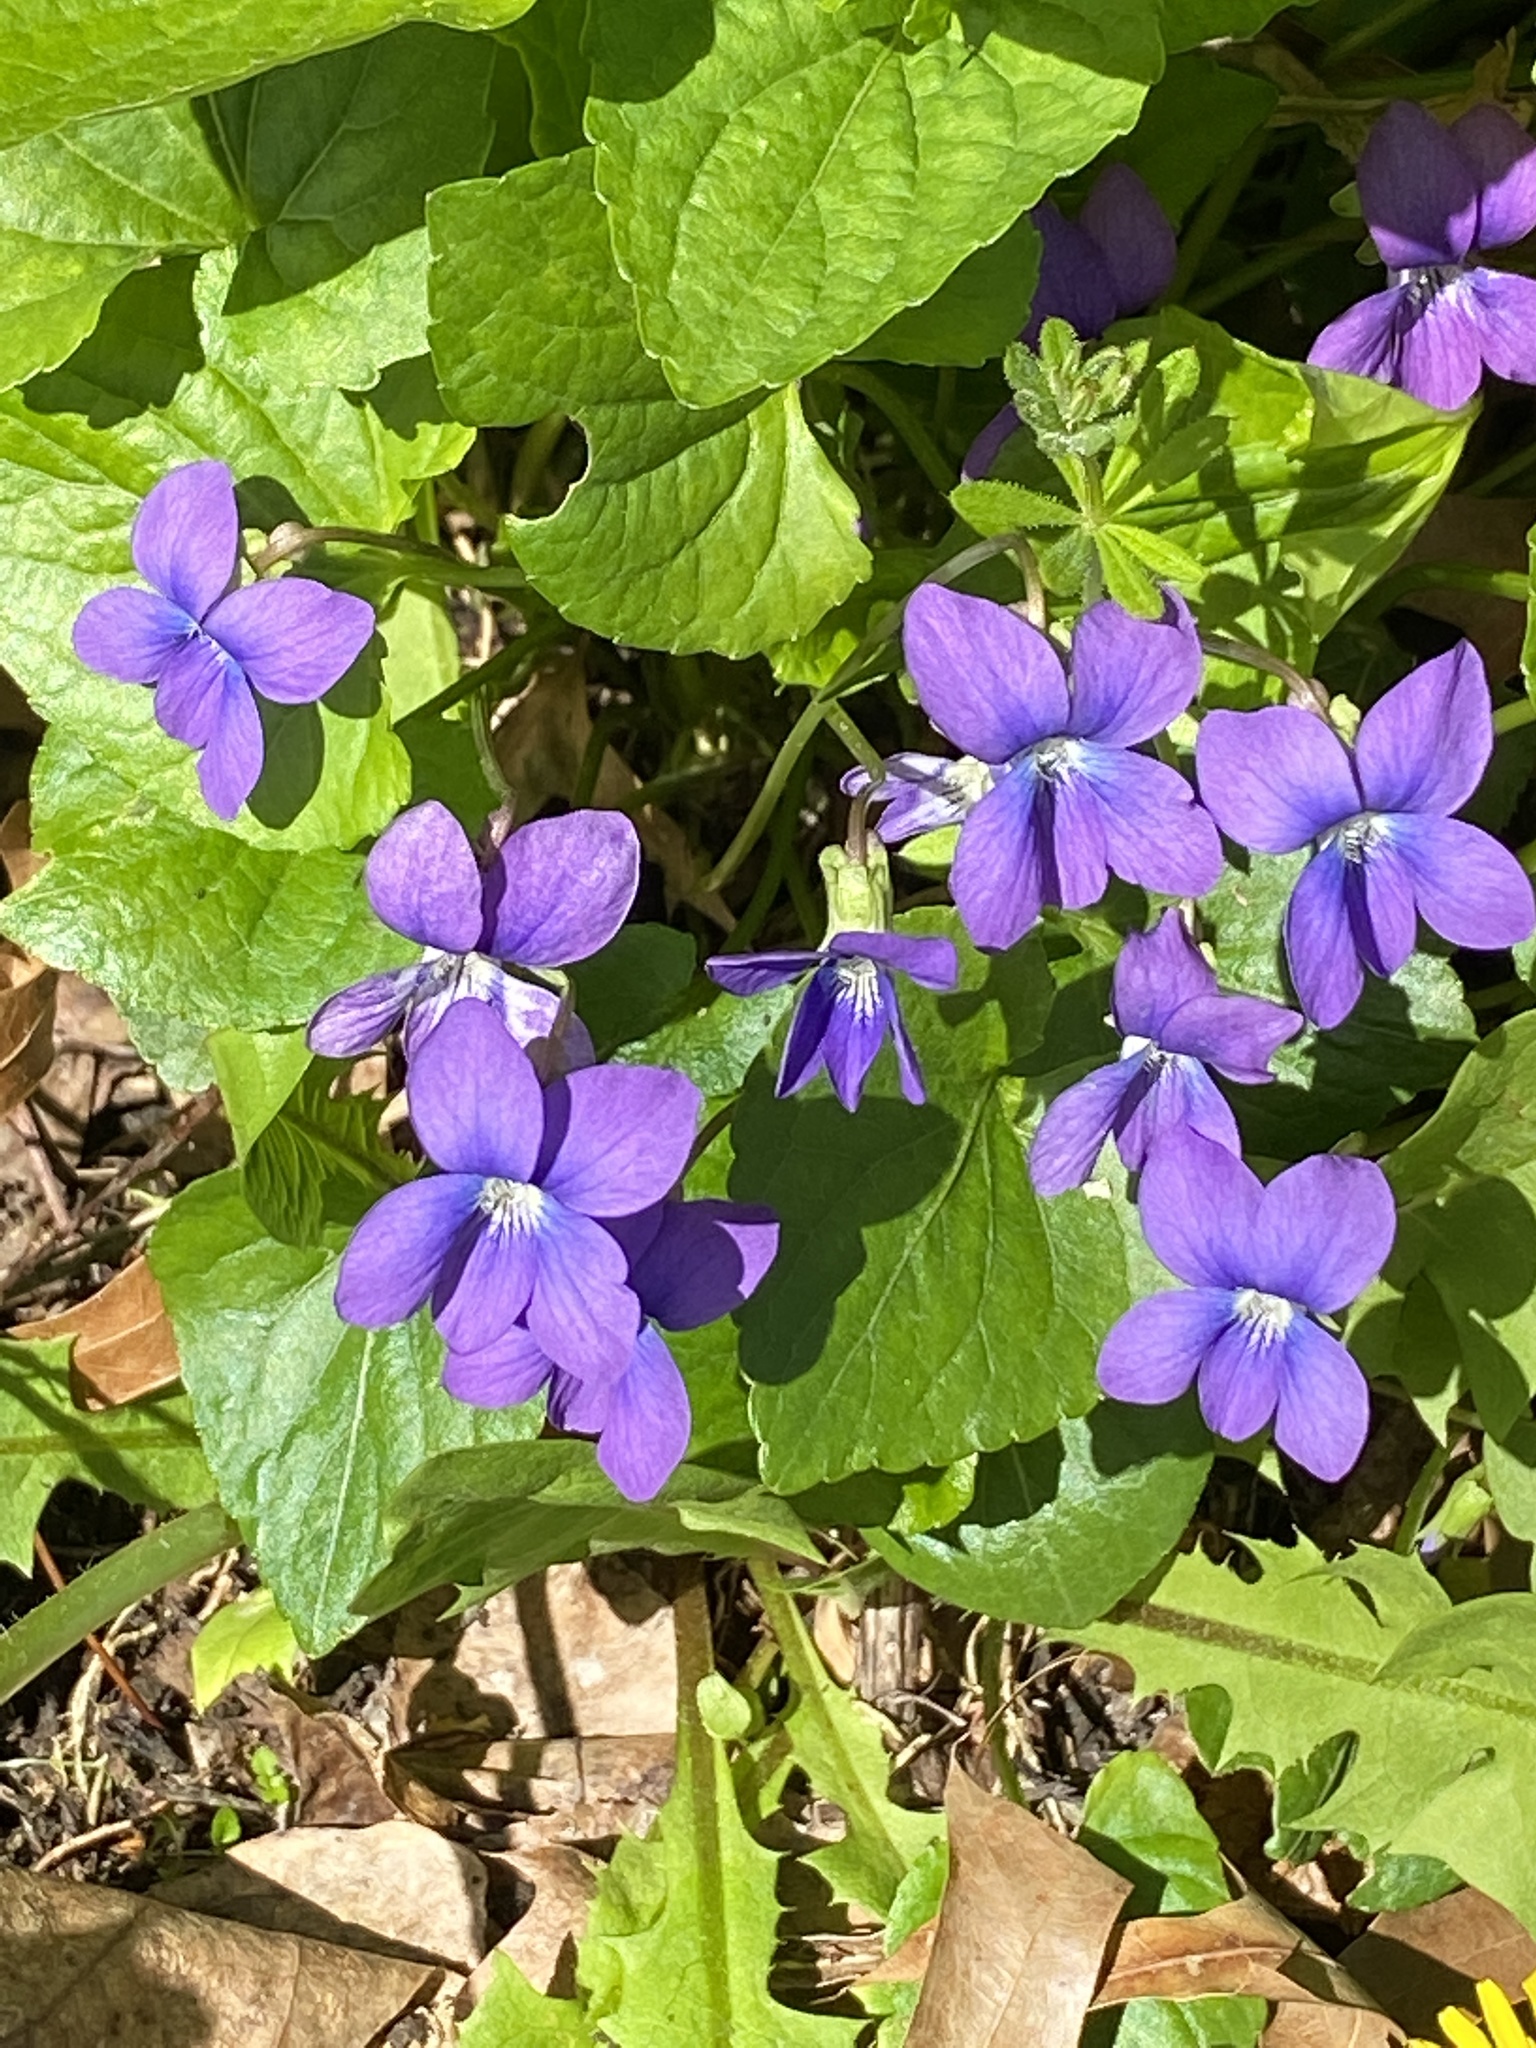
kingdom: Plantae
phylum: Tracheophyta
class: Magnoliopsida
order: Malpighiales
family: Violaceae
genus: Viola
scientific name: Viola sororia
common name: Dooryard violet
